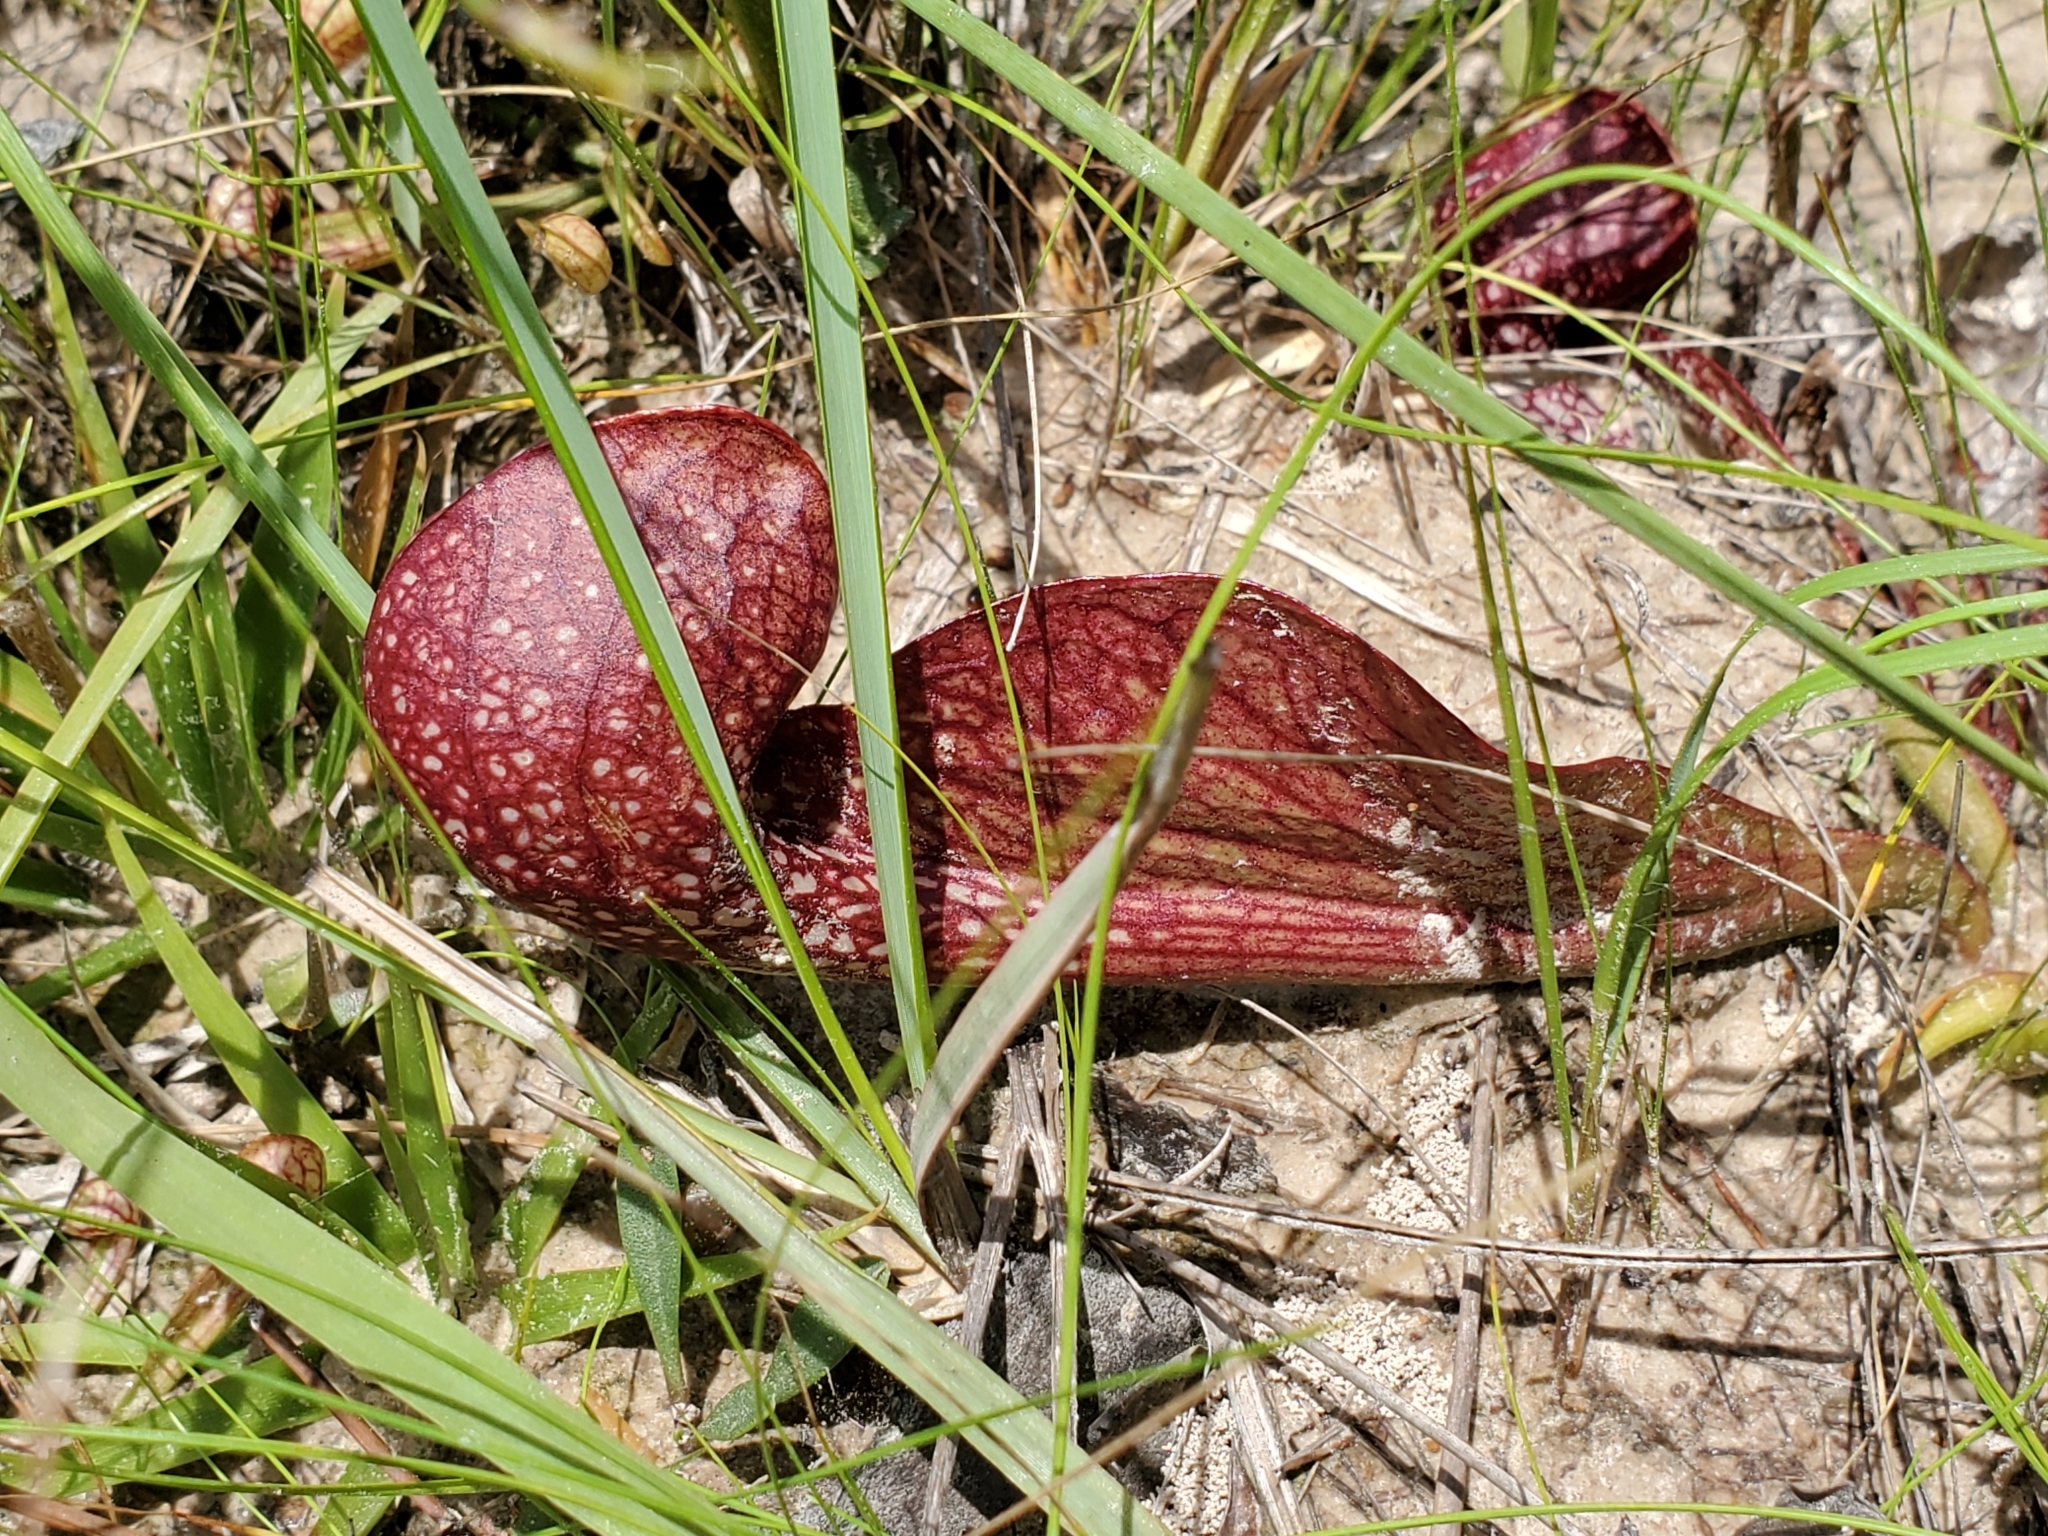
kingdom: Plantae
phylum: Tracheophyta
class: Magnoliopsida
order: Ericales
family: Sarraceniaceae
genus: Sarracenia
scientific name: Sarracenia psittacina
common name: Parrot pitcherplant
